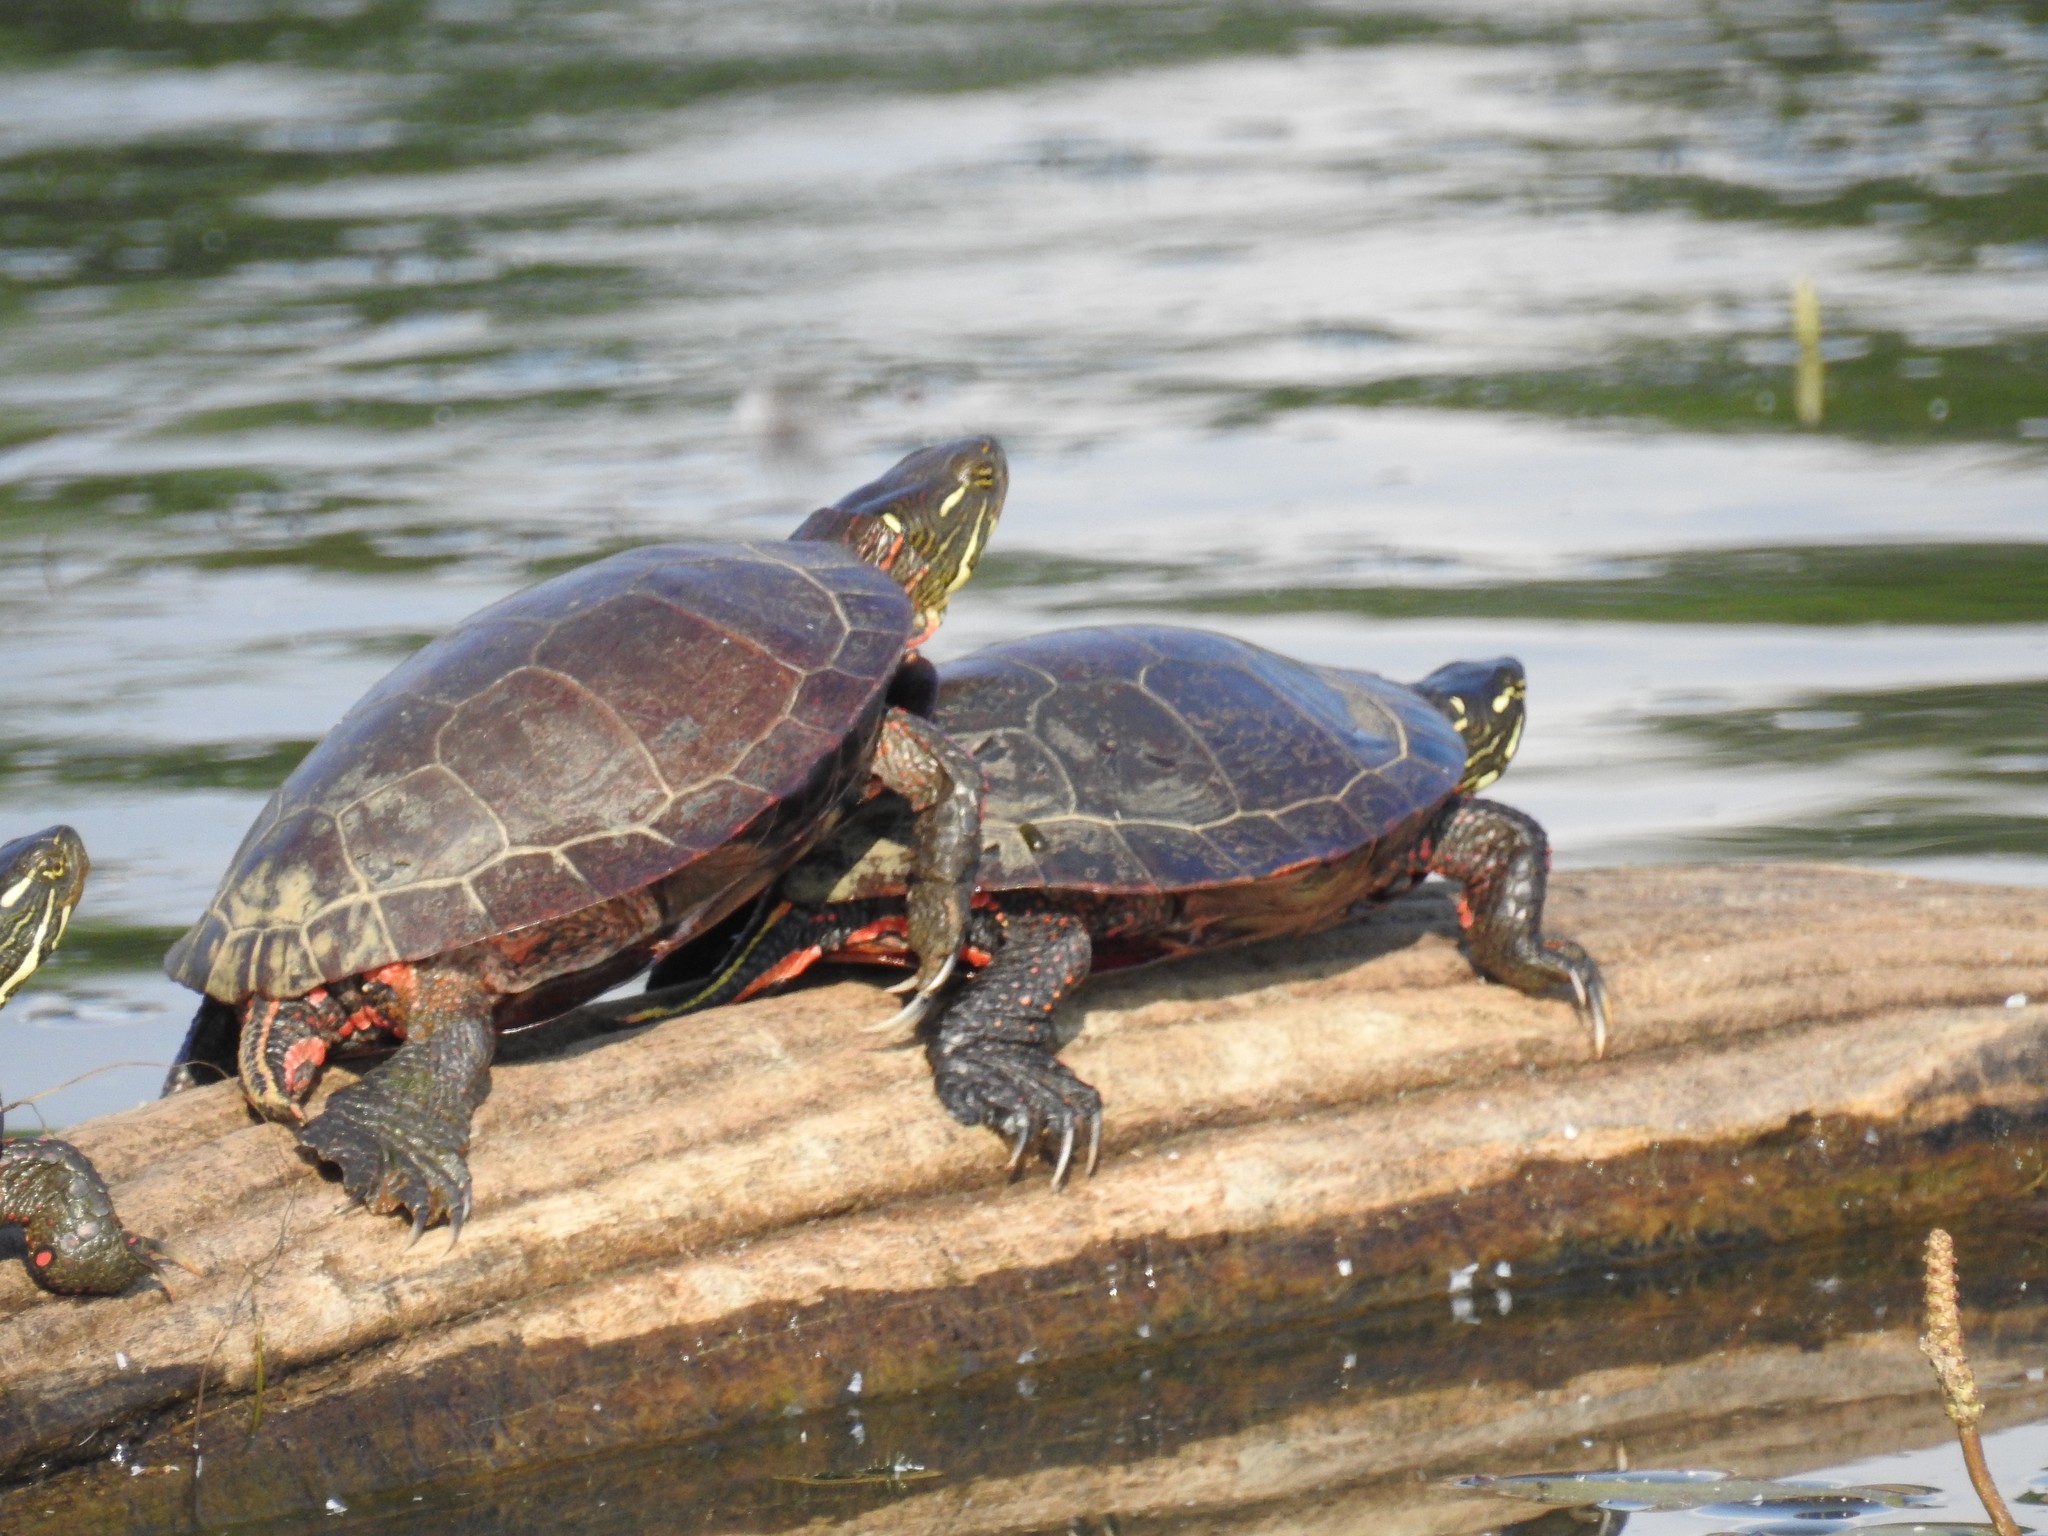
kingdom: Animalia
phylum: Chordata
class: Testudines
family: Emydidae
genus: Chrysemys
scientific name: Chrysemys picta
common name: Painted turtle
